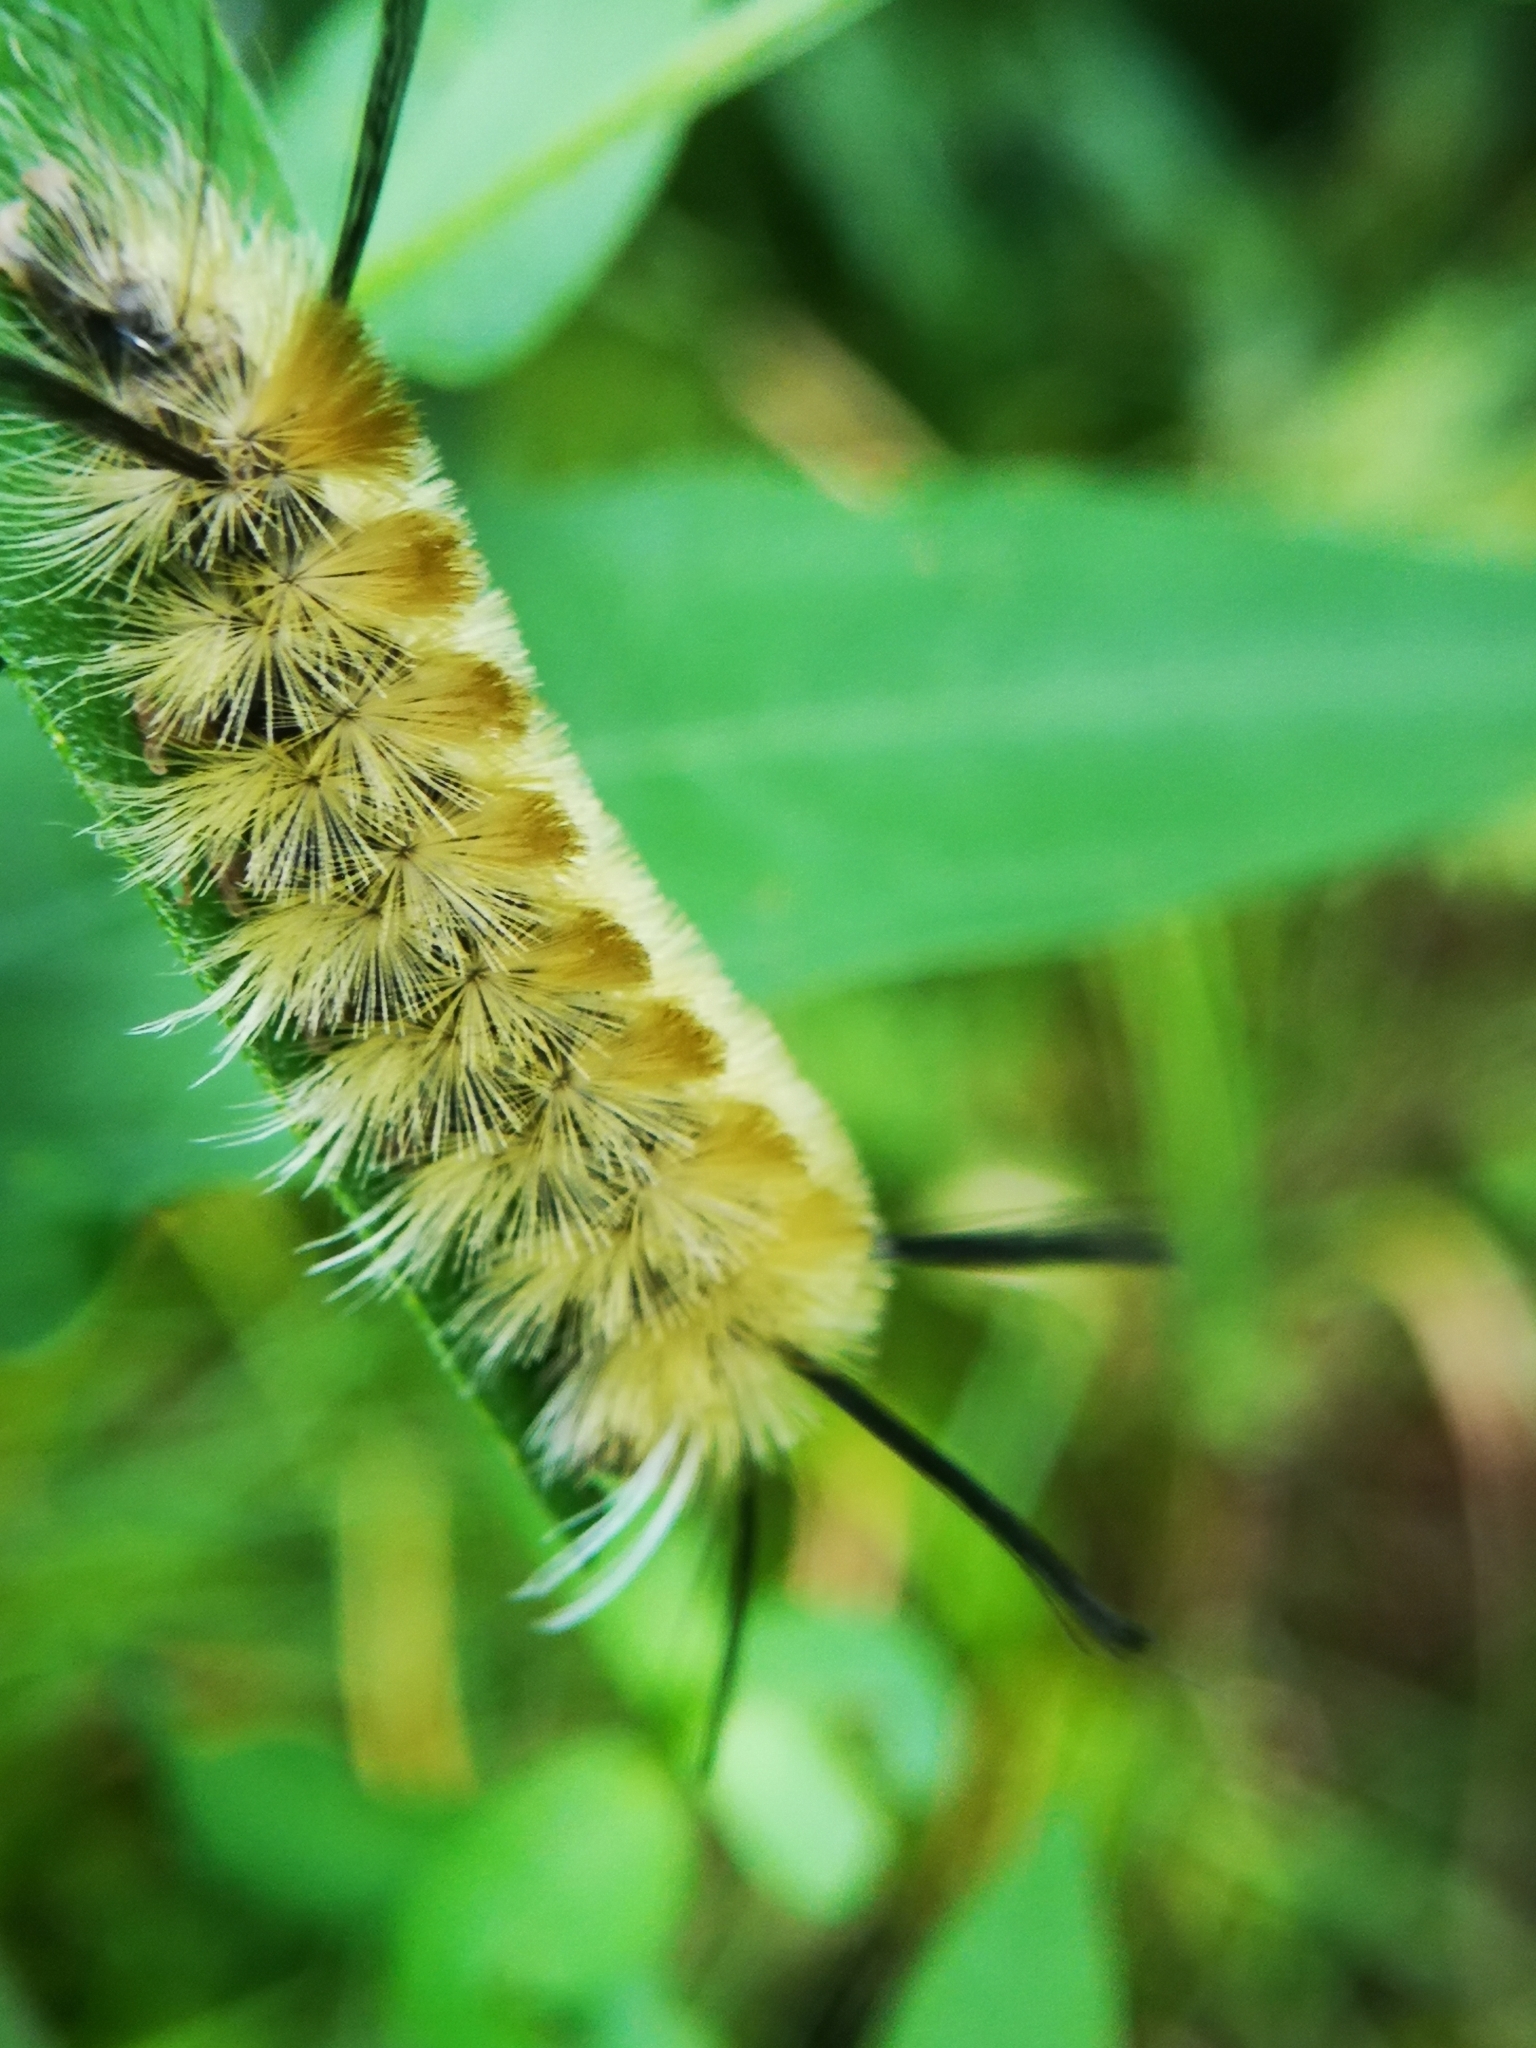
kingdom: Animalia
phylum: Arthropoda
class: Insecta
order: Lepidoptera
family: Erebidae
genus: Halysidota
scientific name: Halysidota tessellaris
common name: Banded tussock moth
